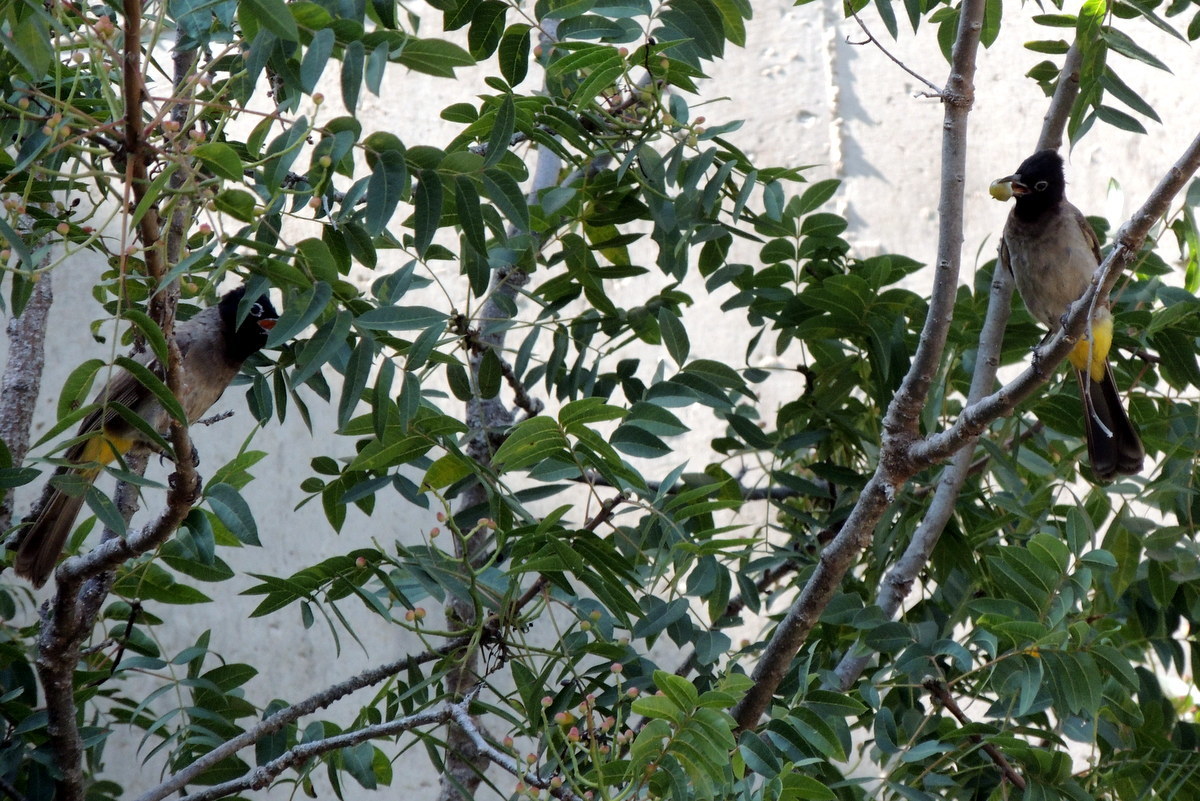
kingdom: Animalia
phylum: Chordata
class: Aves
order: Passeriformes
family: Pycnonotidae
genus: Pycnonotus
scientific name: Pycnonotus xanthopygos
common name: White-spectacled bulbul
